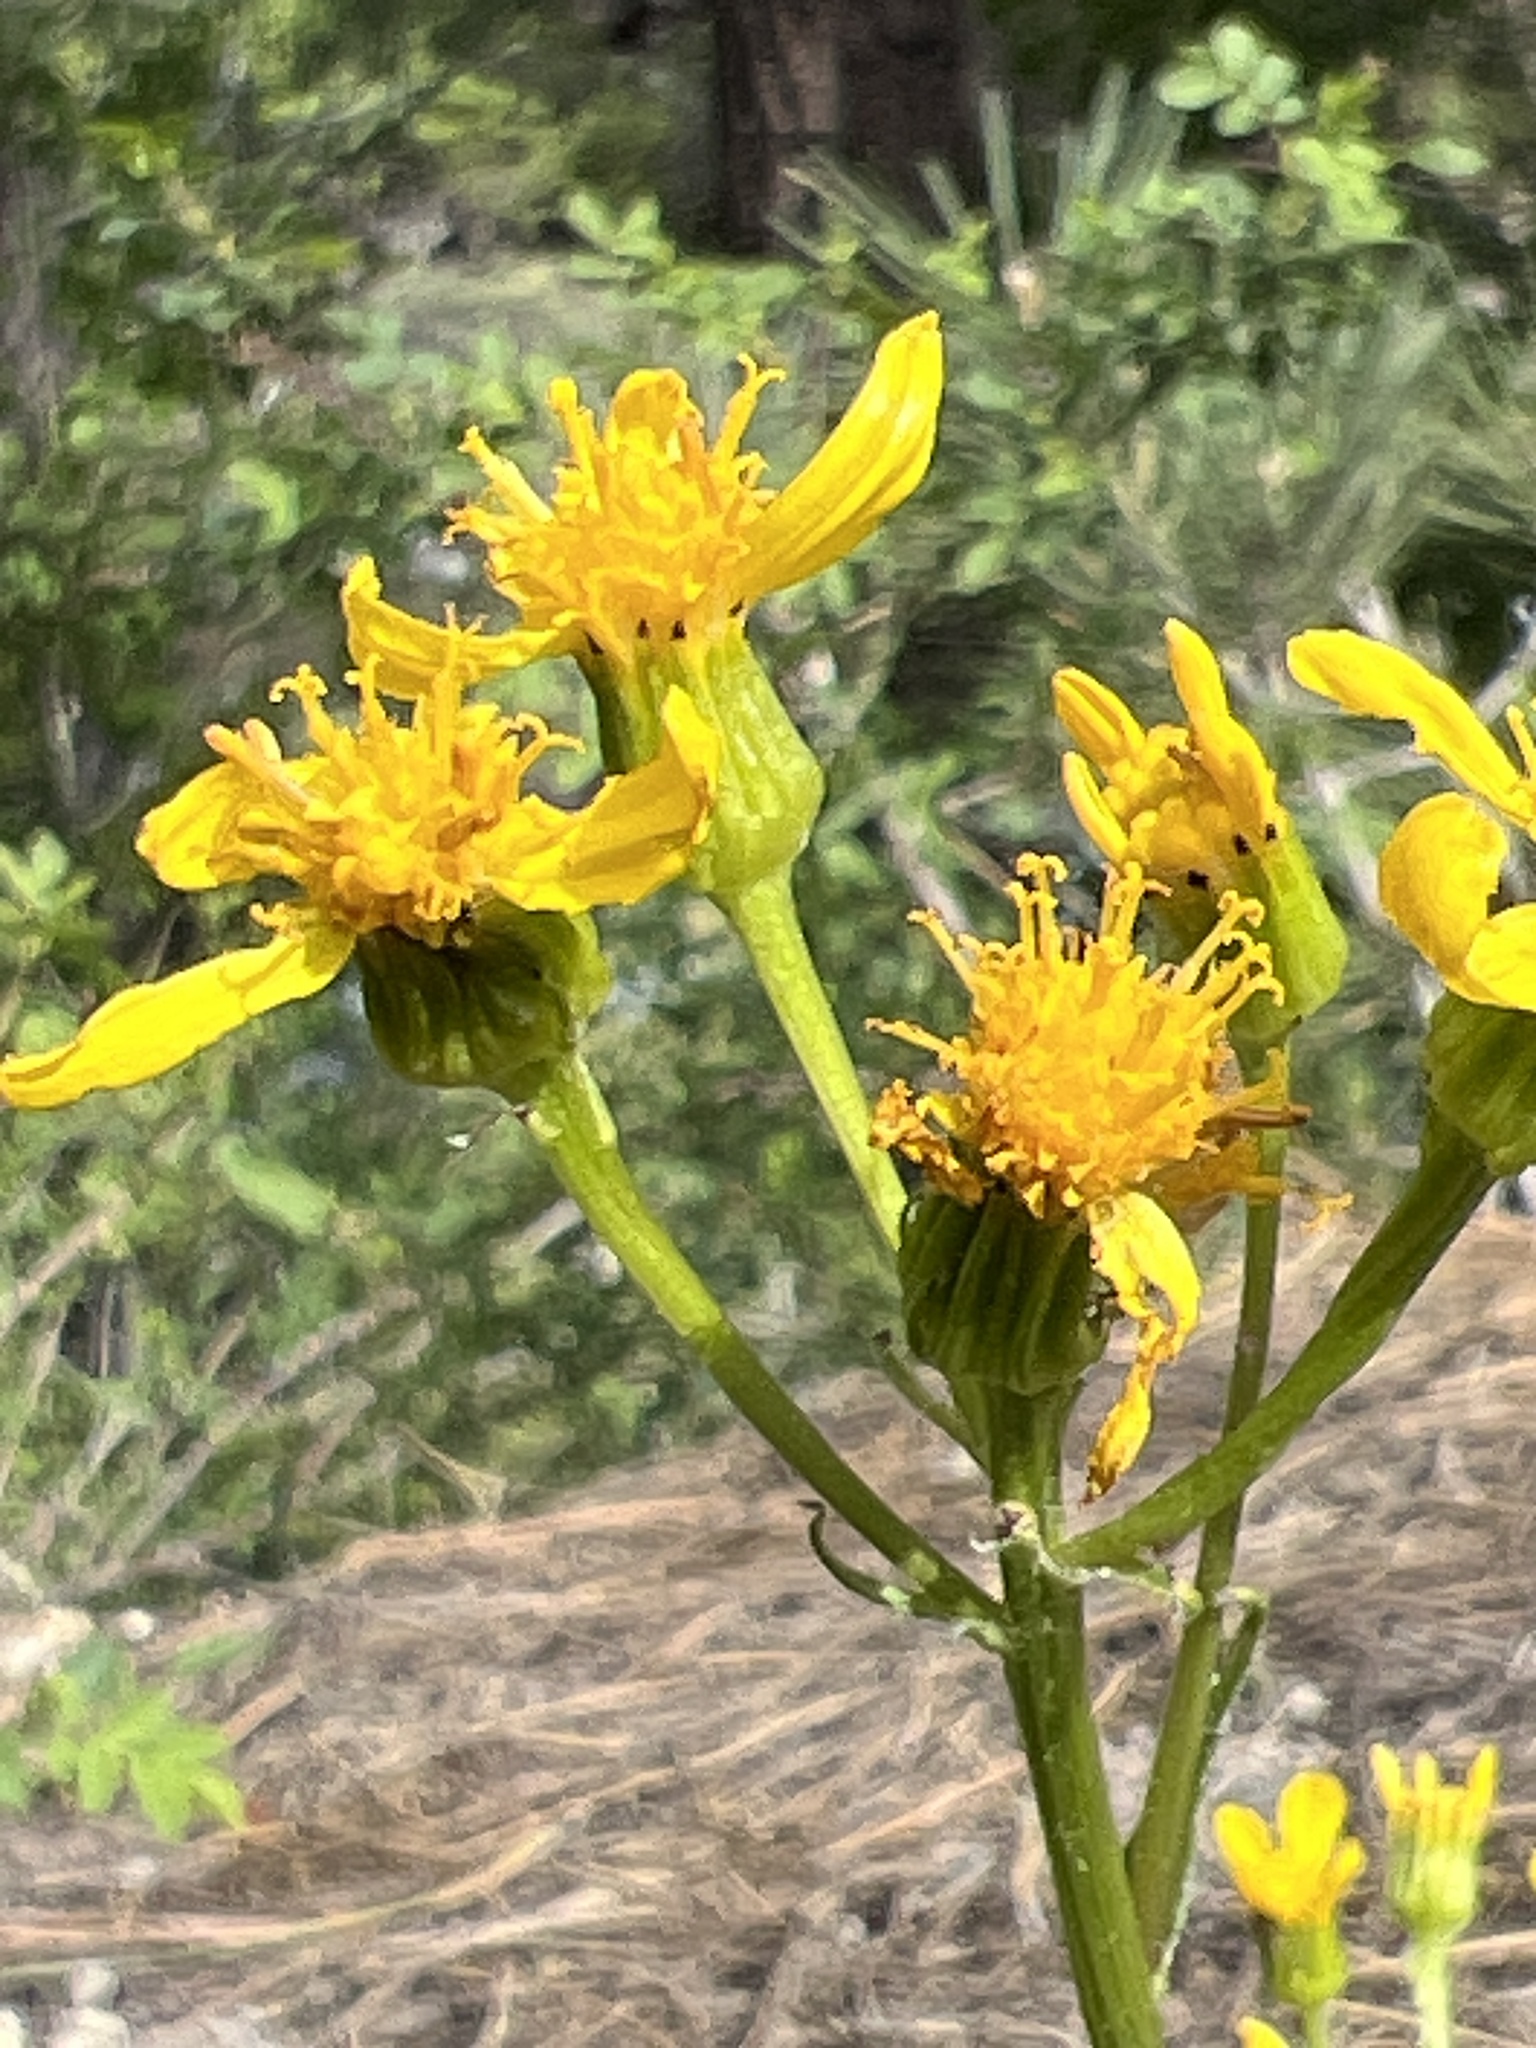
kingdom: Plantae
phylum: Tracheophyta
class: Magnoliopsida
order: Asterales
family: Asteraceae
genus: Senecio
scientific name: Senecio integerrimus
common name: Gaugeplant
